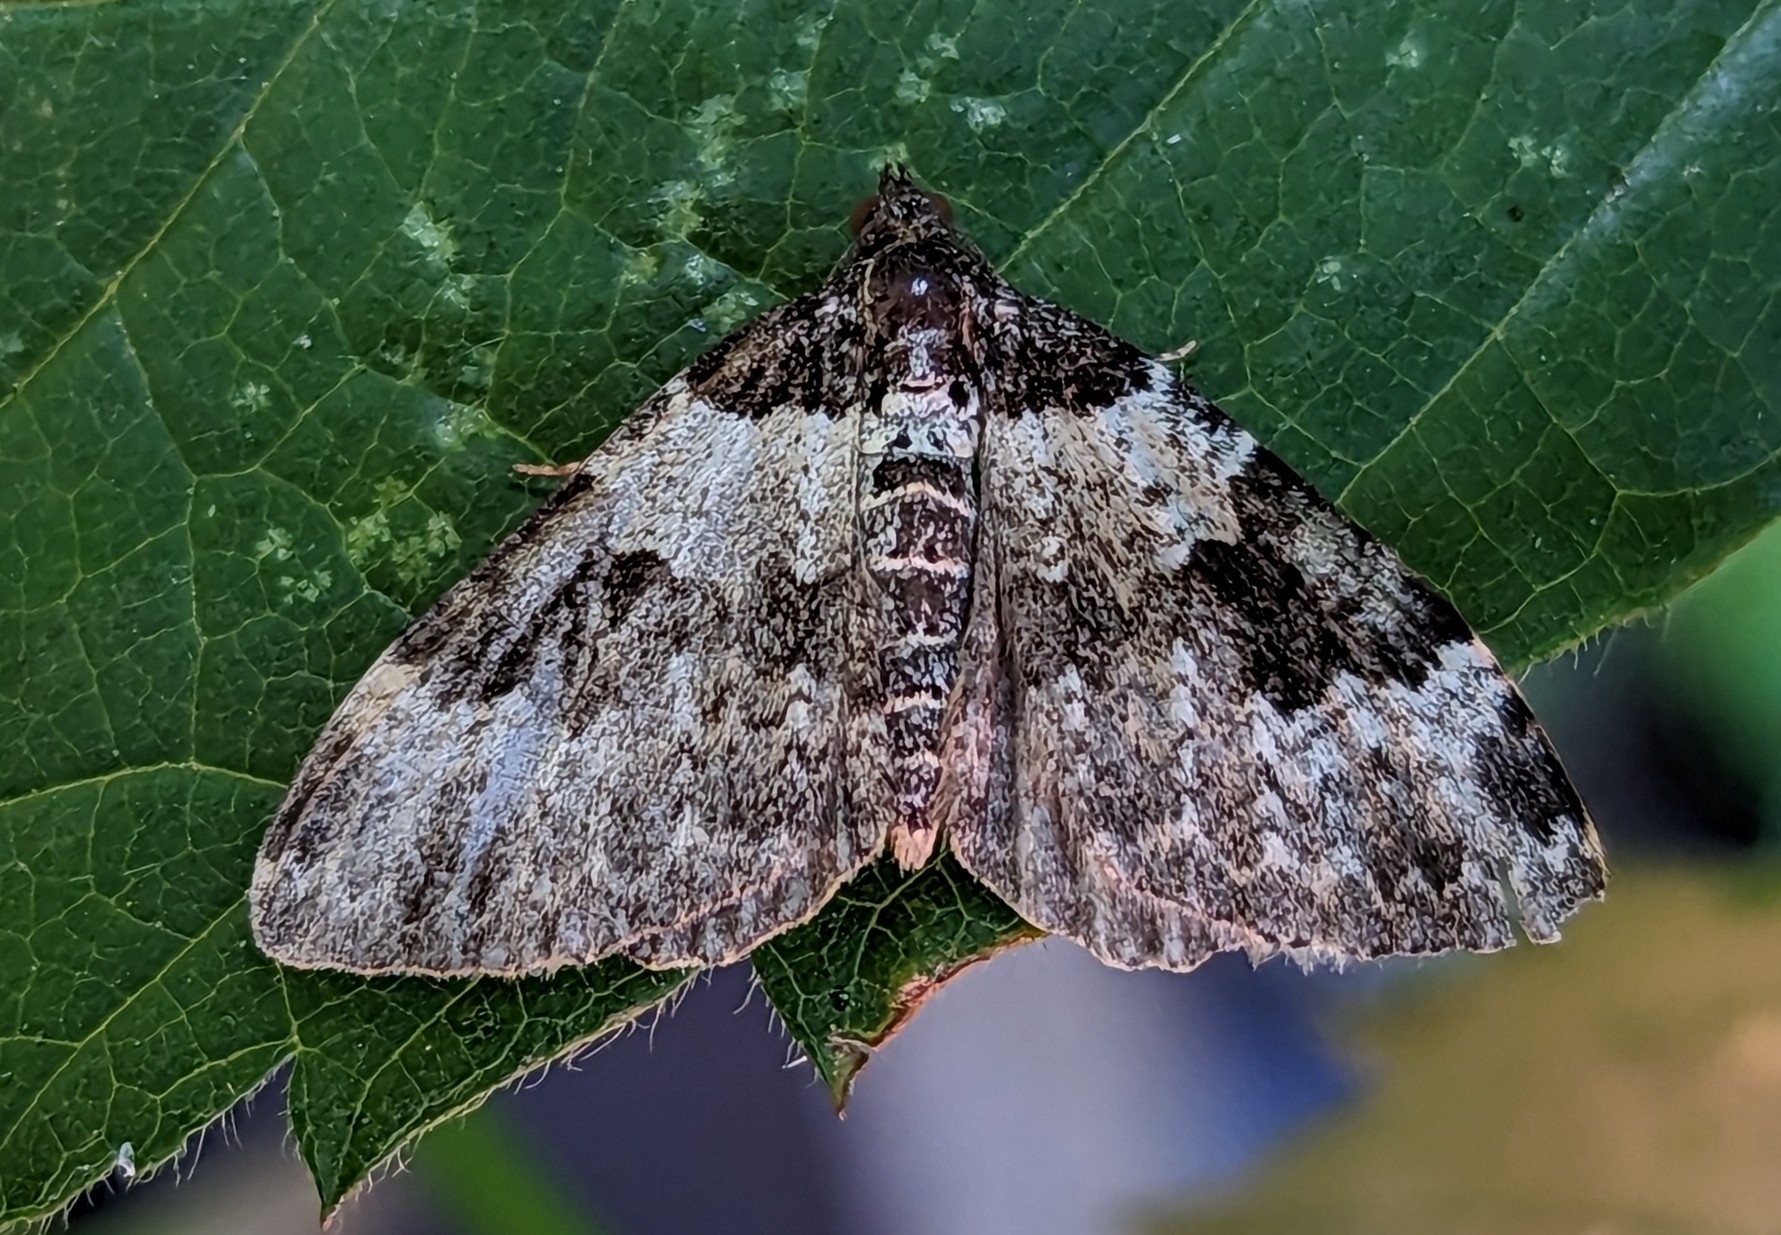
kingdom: Animalia
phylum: Arthropoda
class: Insecta
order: Lepidoptera
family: Geometridae
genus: Xanthorhoe
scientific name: Xanthorhoe fluctuata
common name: Garden carpet
